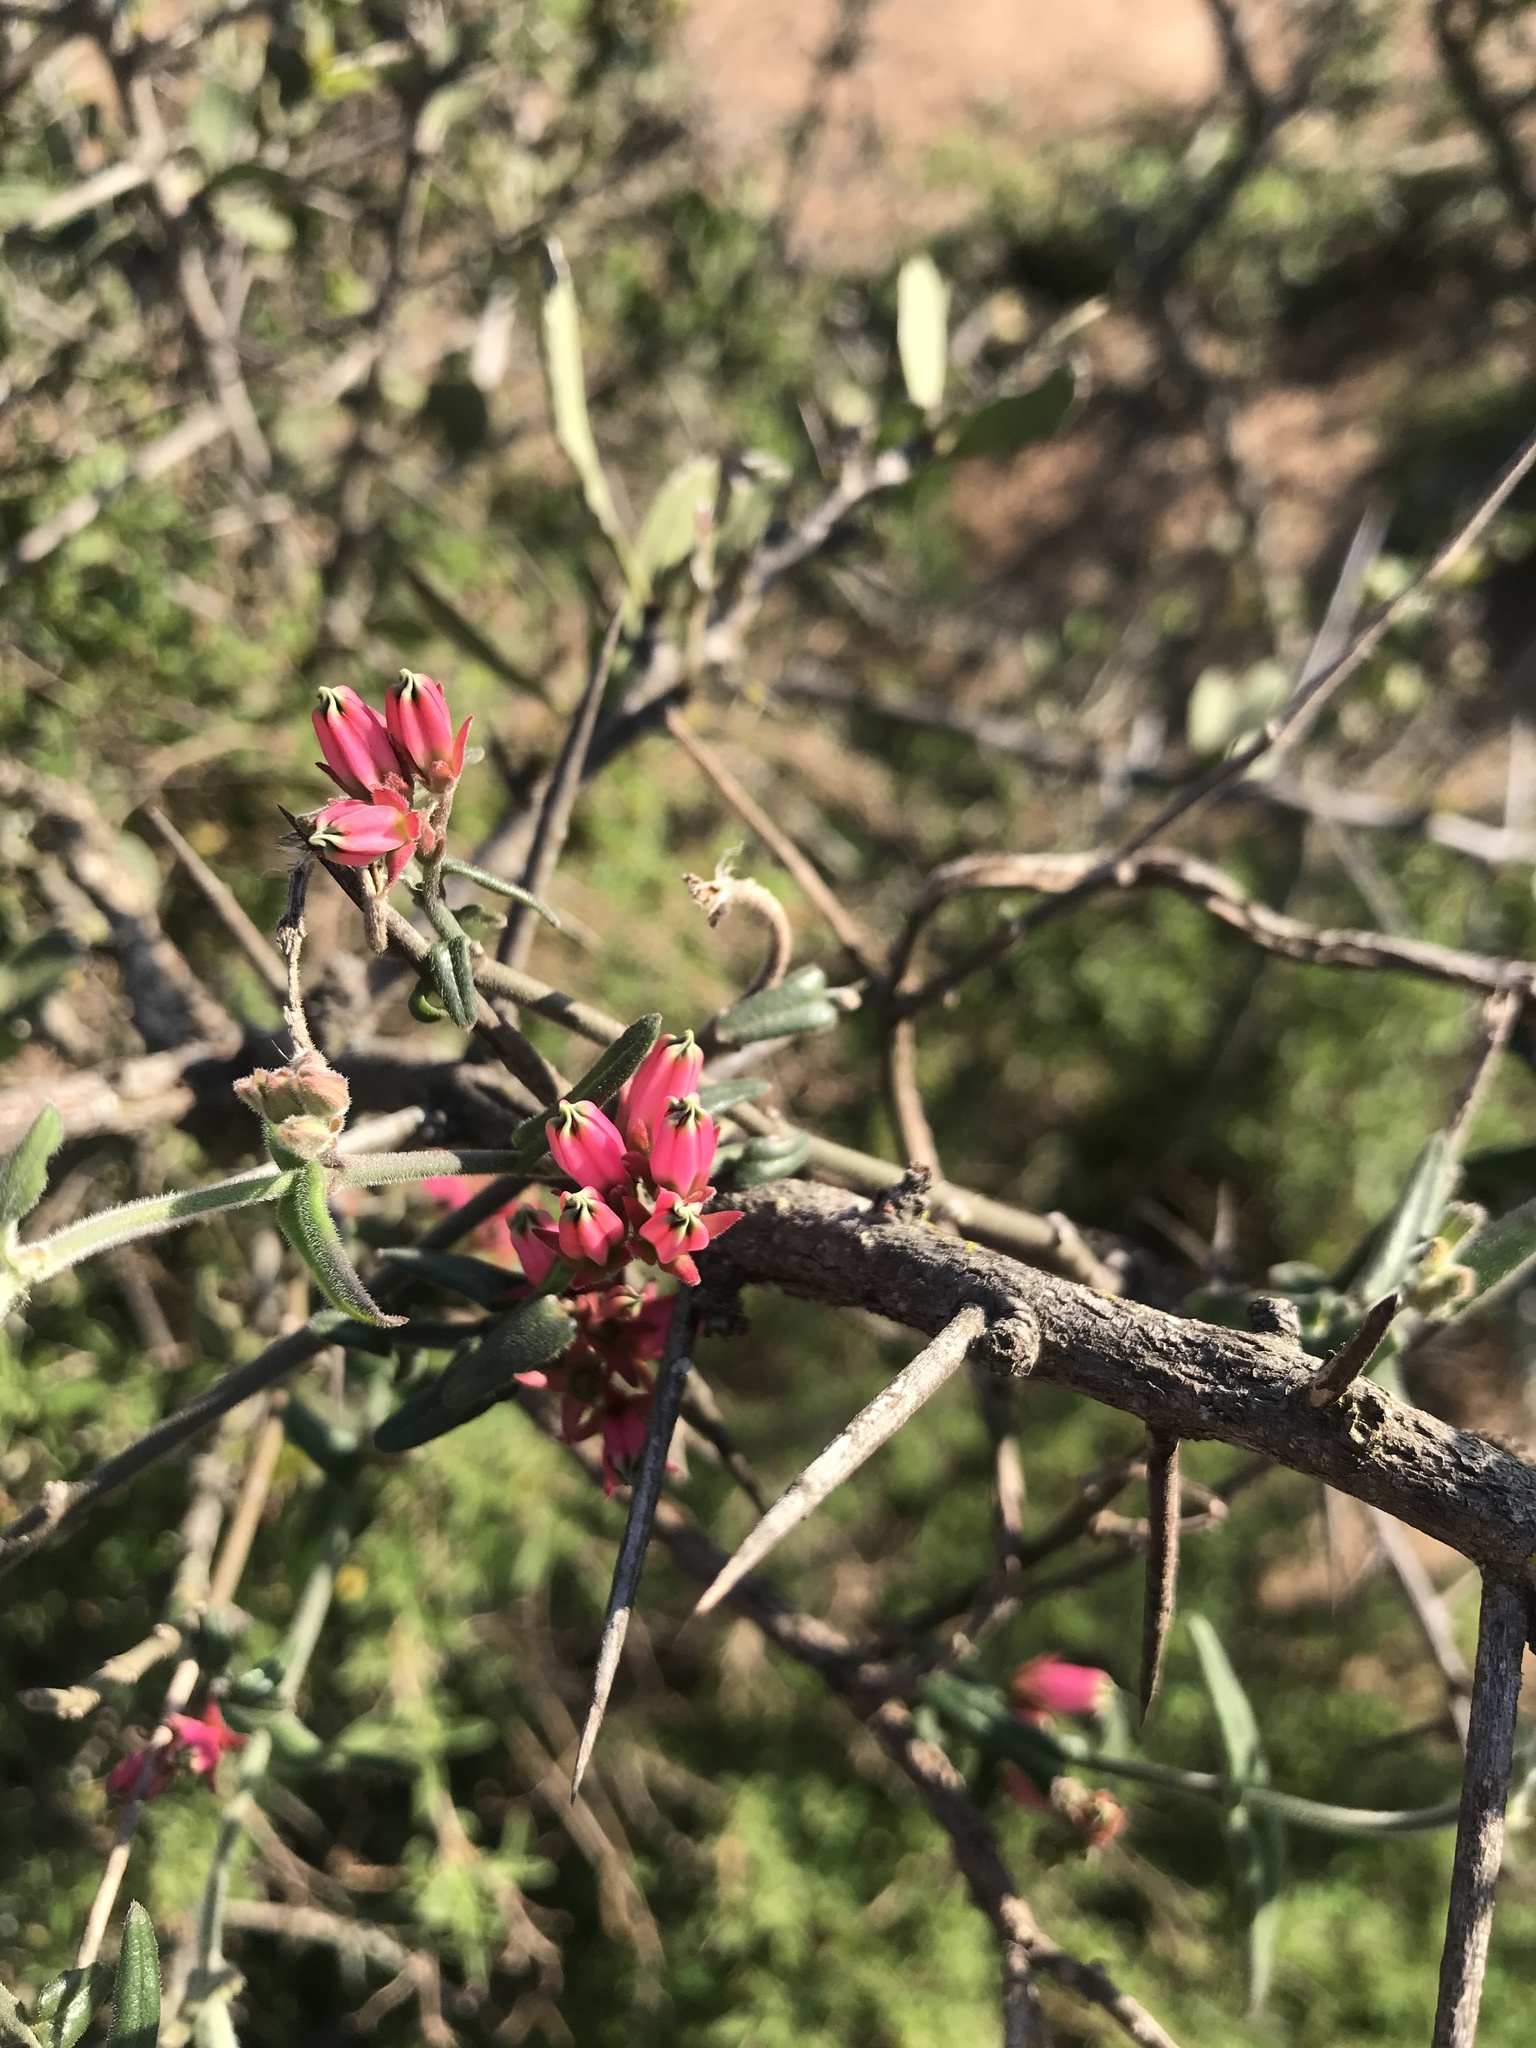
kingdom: Plantae
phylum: Tracheophyta
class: Magnoliopsida
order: Gentianales
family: Apocynaceae
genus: Microloma
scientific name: Microloma sagittatum
